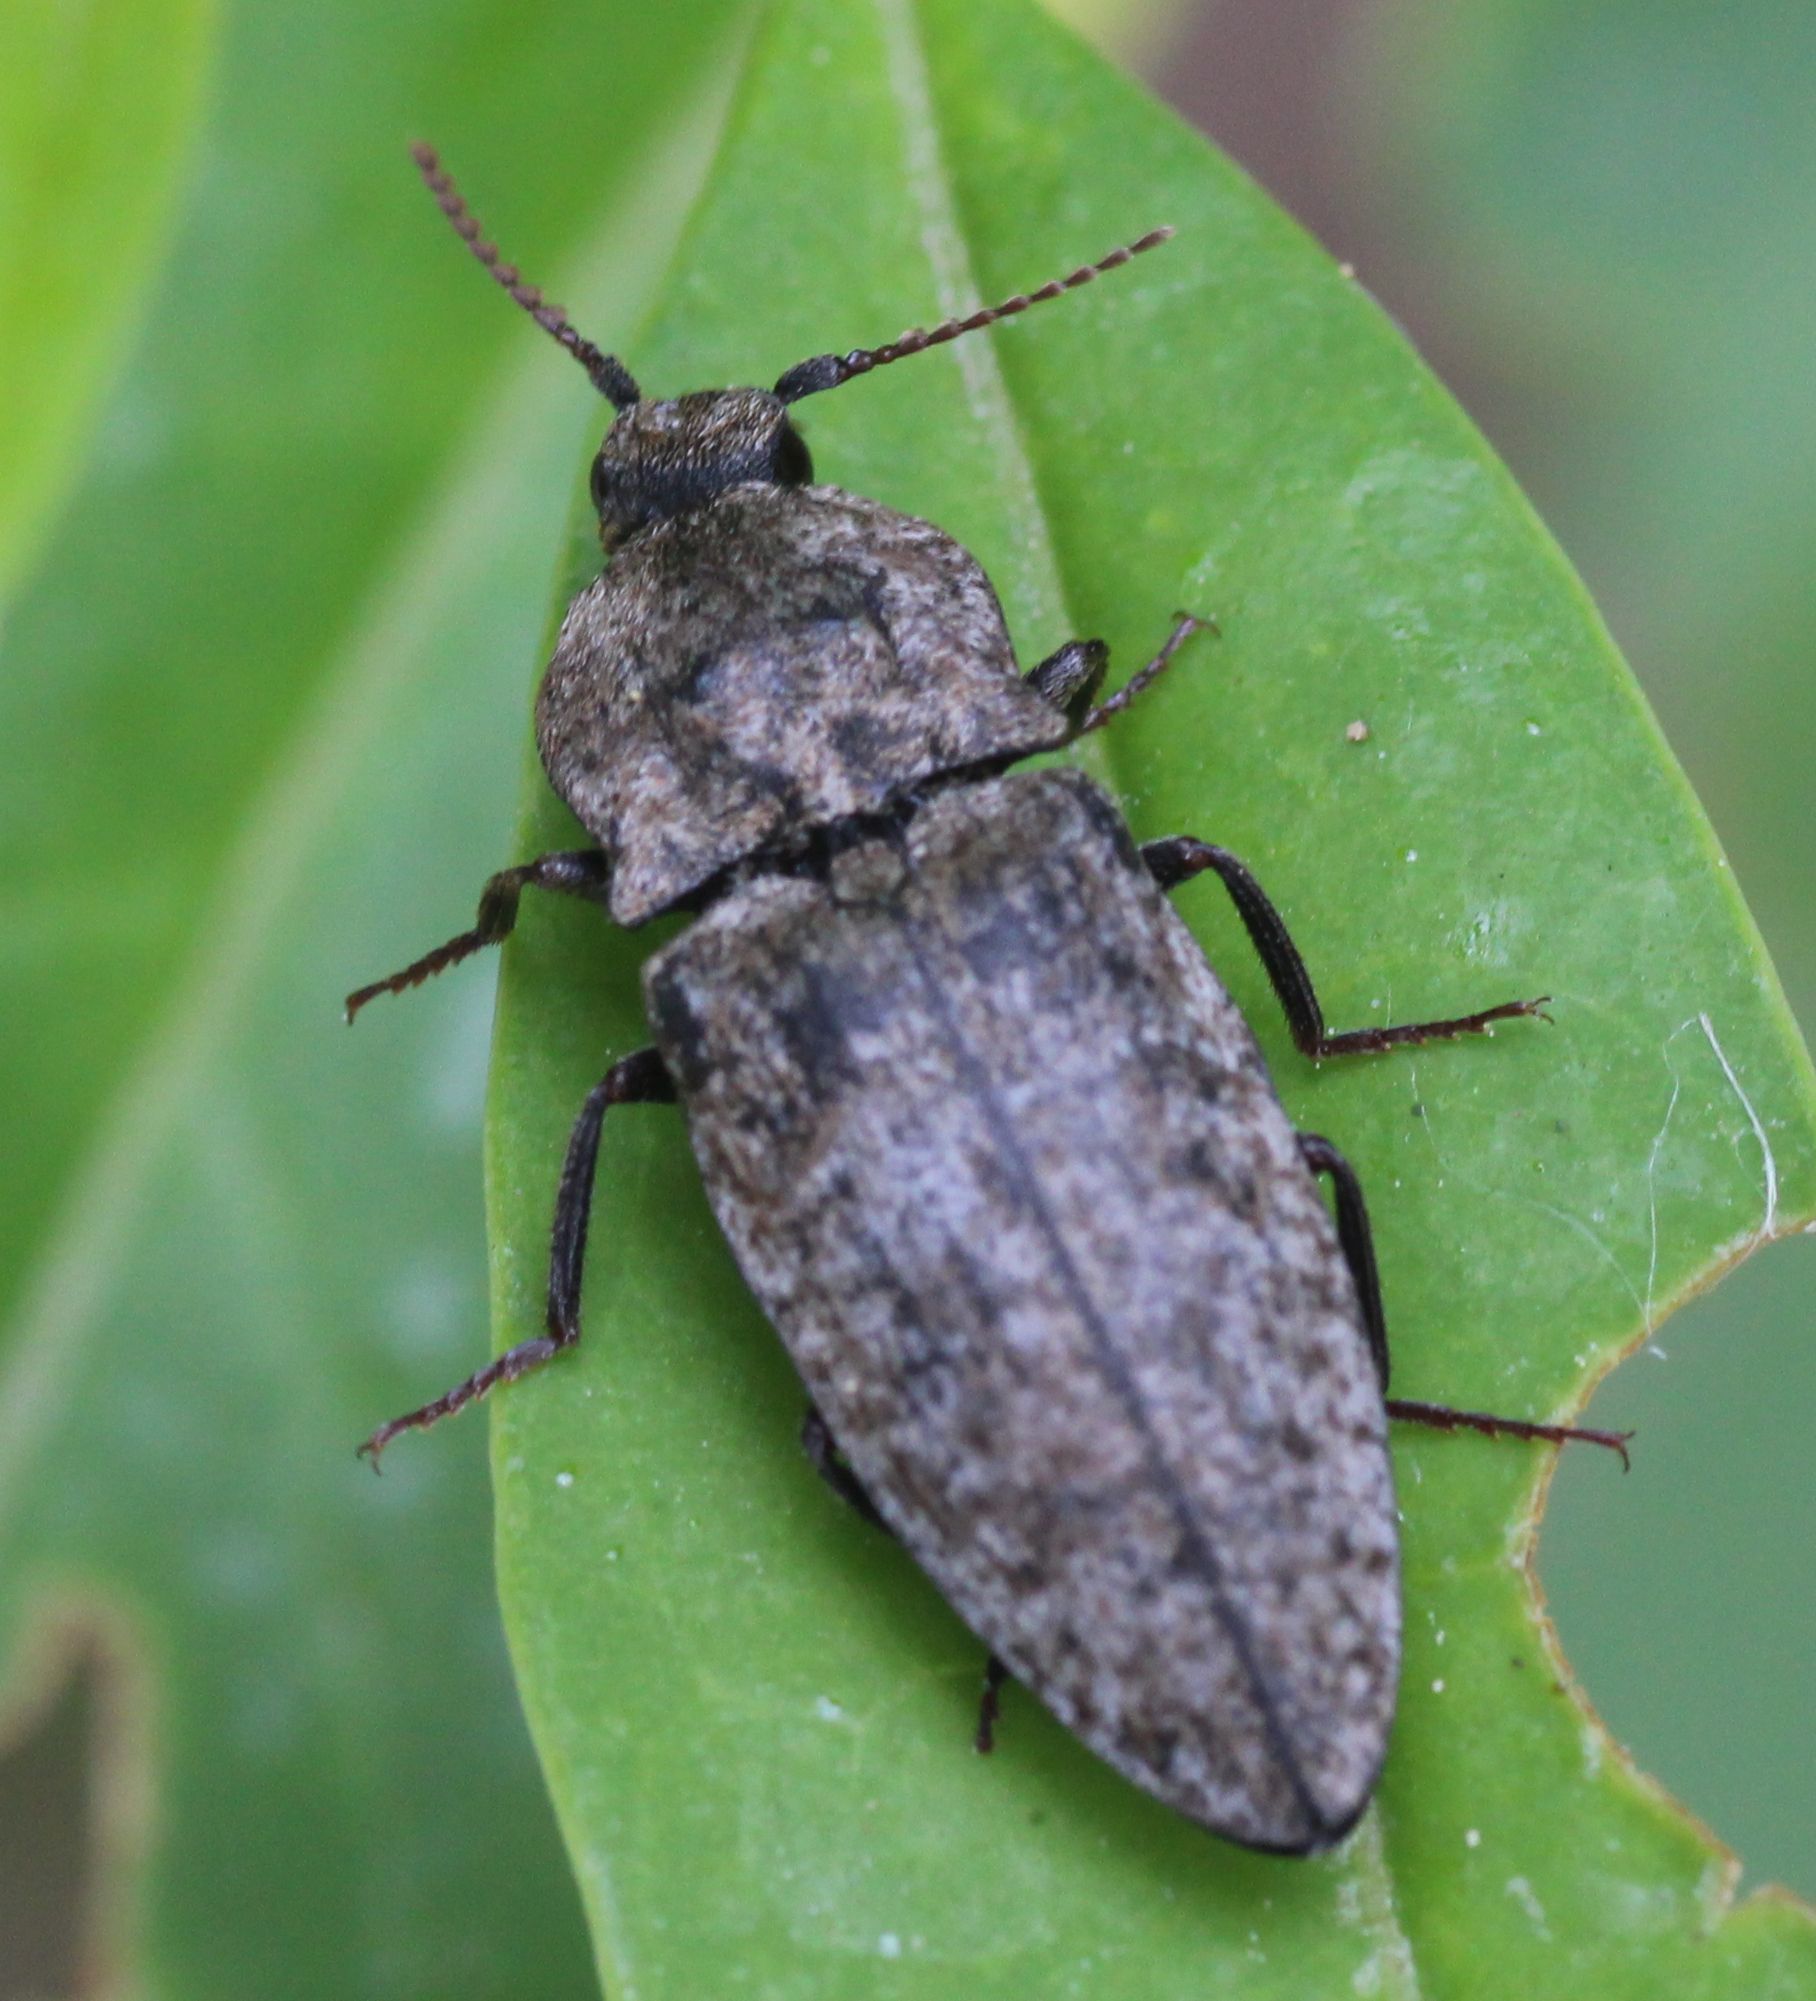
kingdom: Animalia
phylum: Arthropoda
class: Insecta
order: Coleoptera
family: Elateridae
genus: Agrypnus
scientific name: Agrypnus murinus
